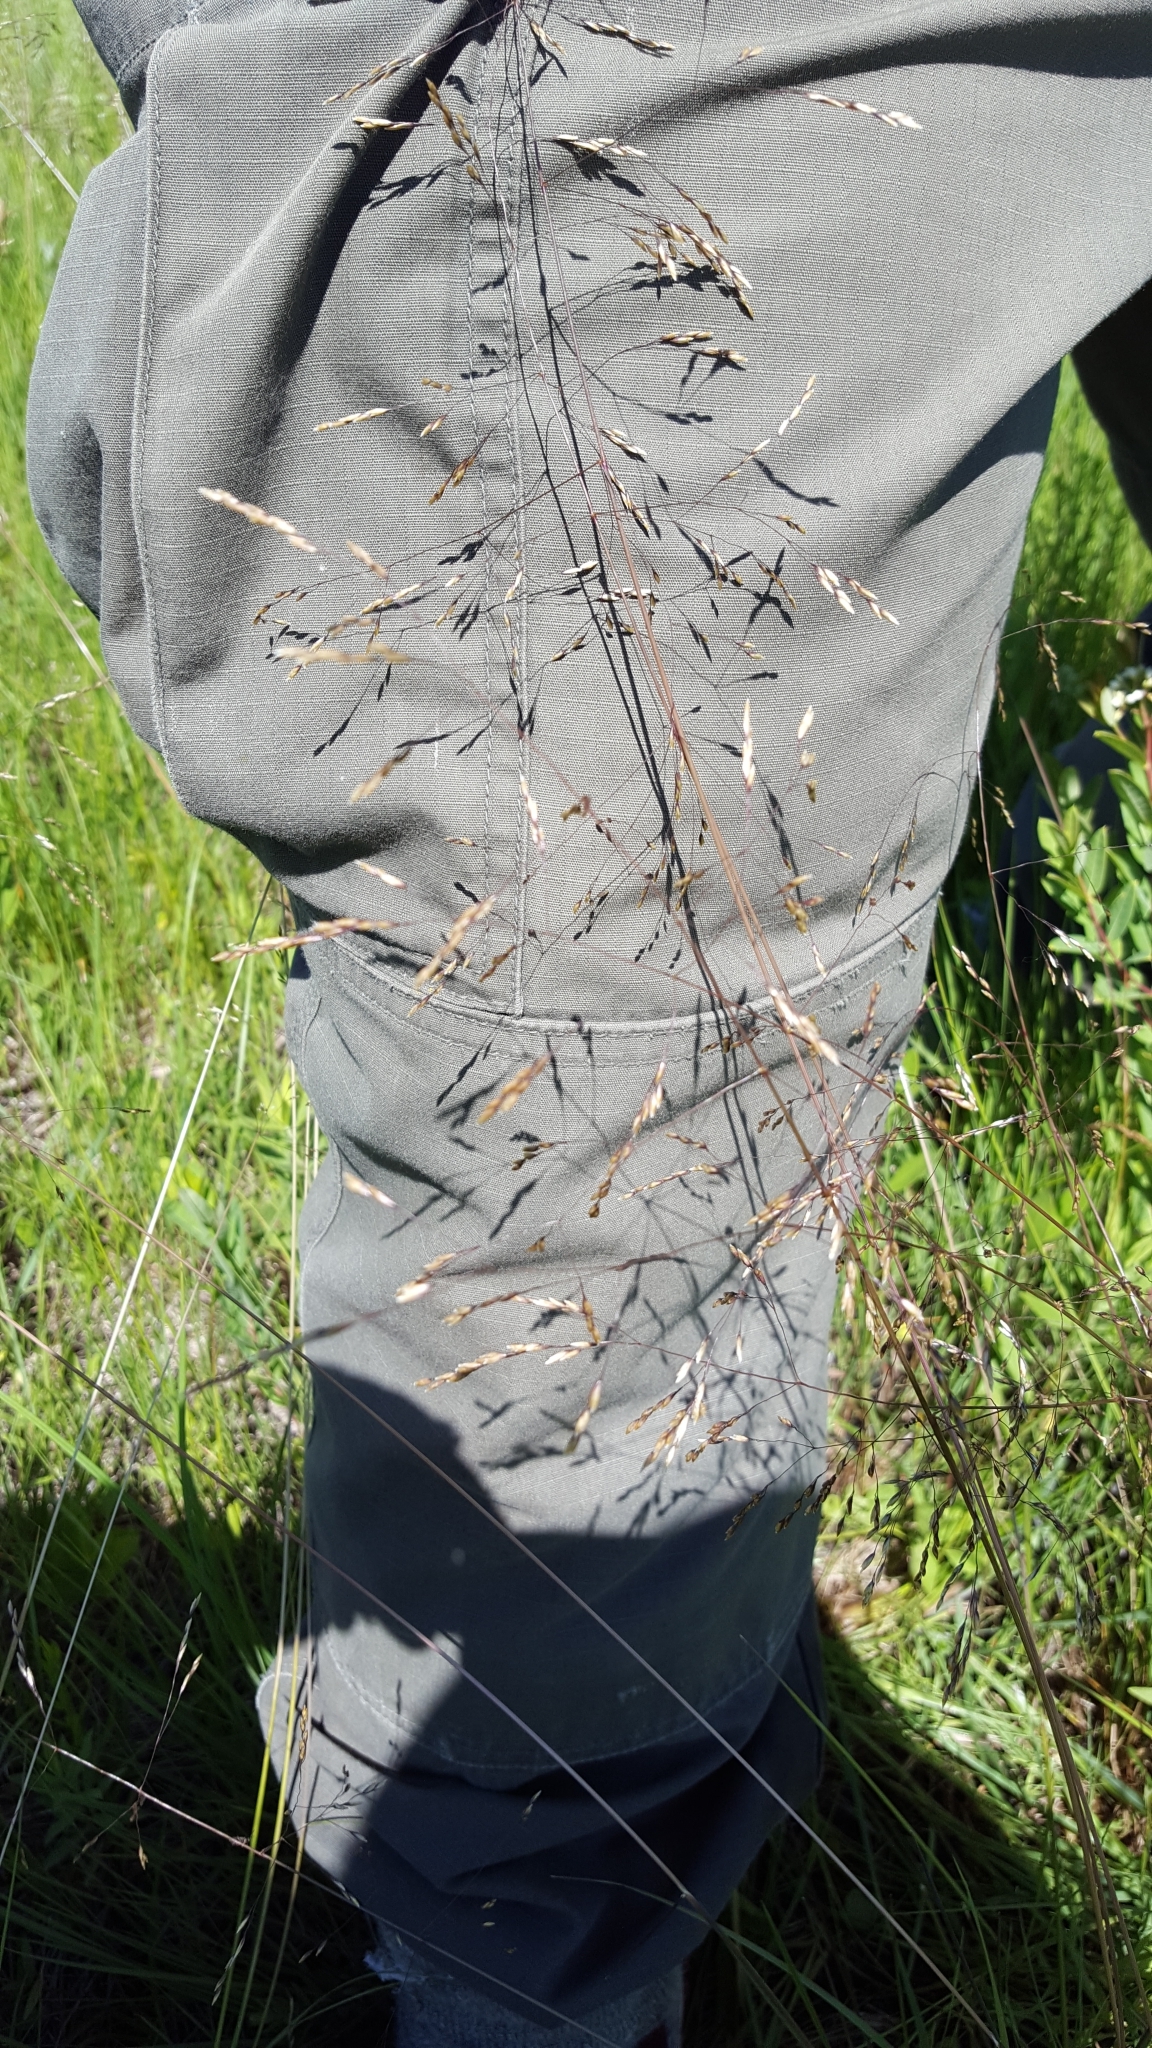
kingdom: Plantae
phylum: Tracheophyta
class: Liliopsida
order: Poales
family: Poaceae
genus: Deschampsia
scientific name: Deschampsia cespitosa
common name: Tufted hair-grass
